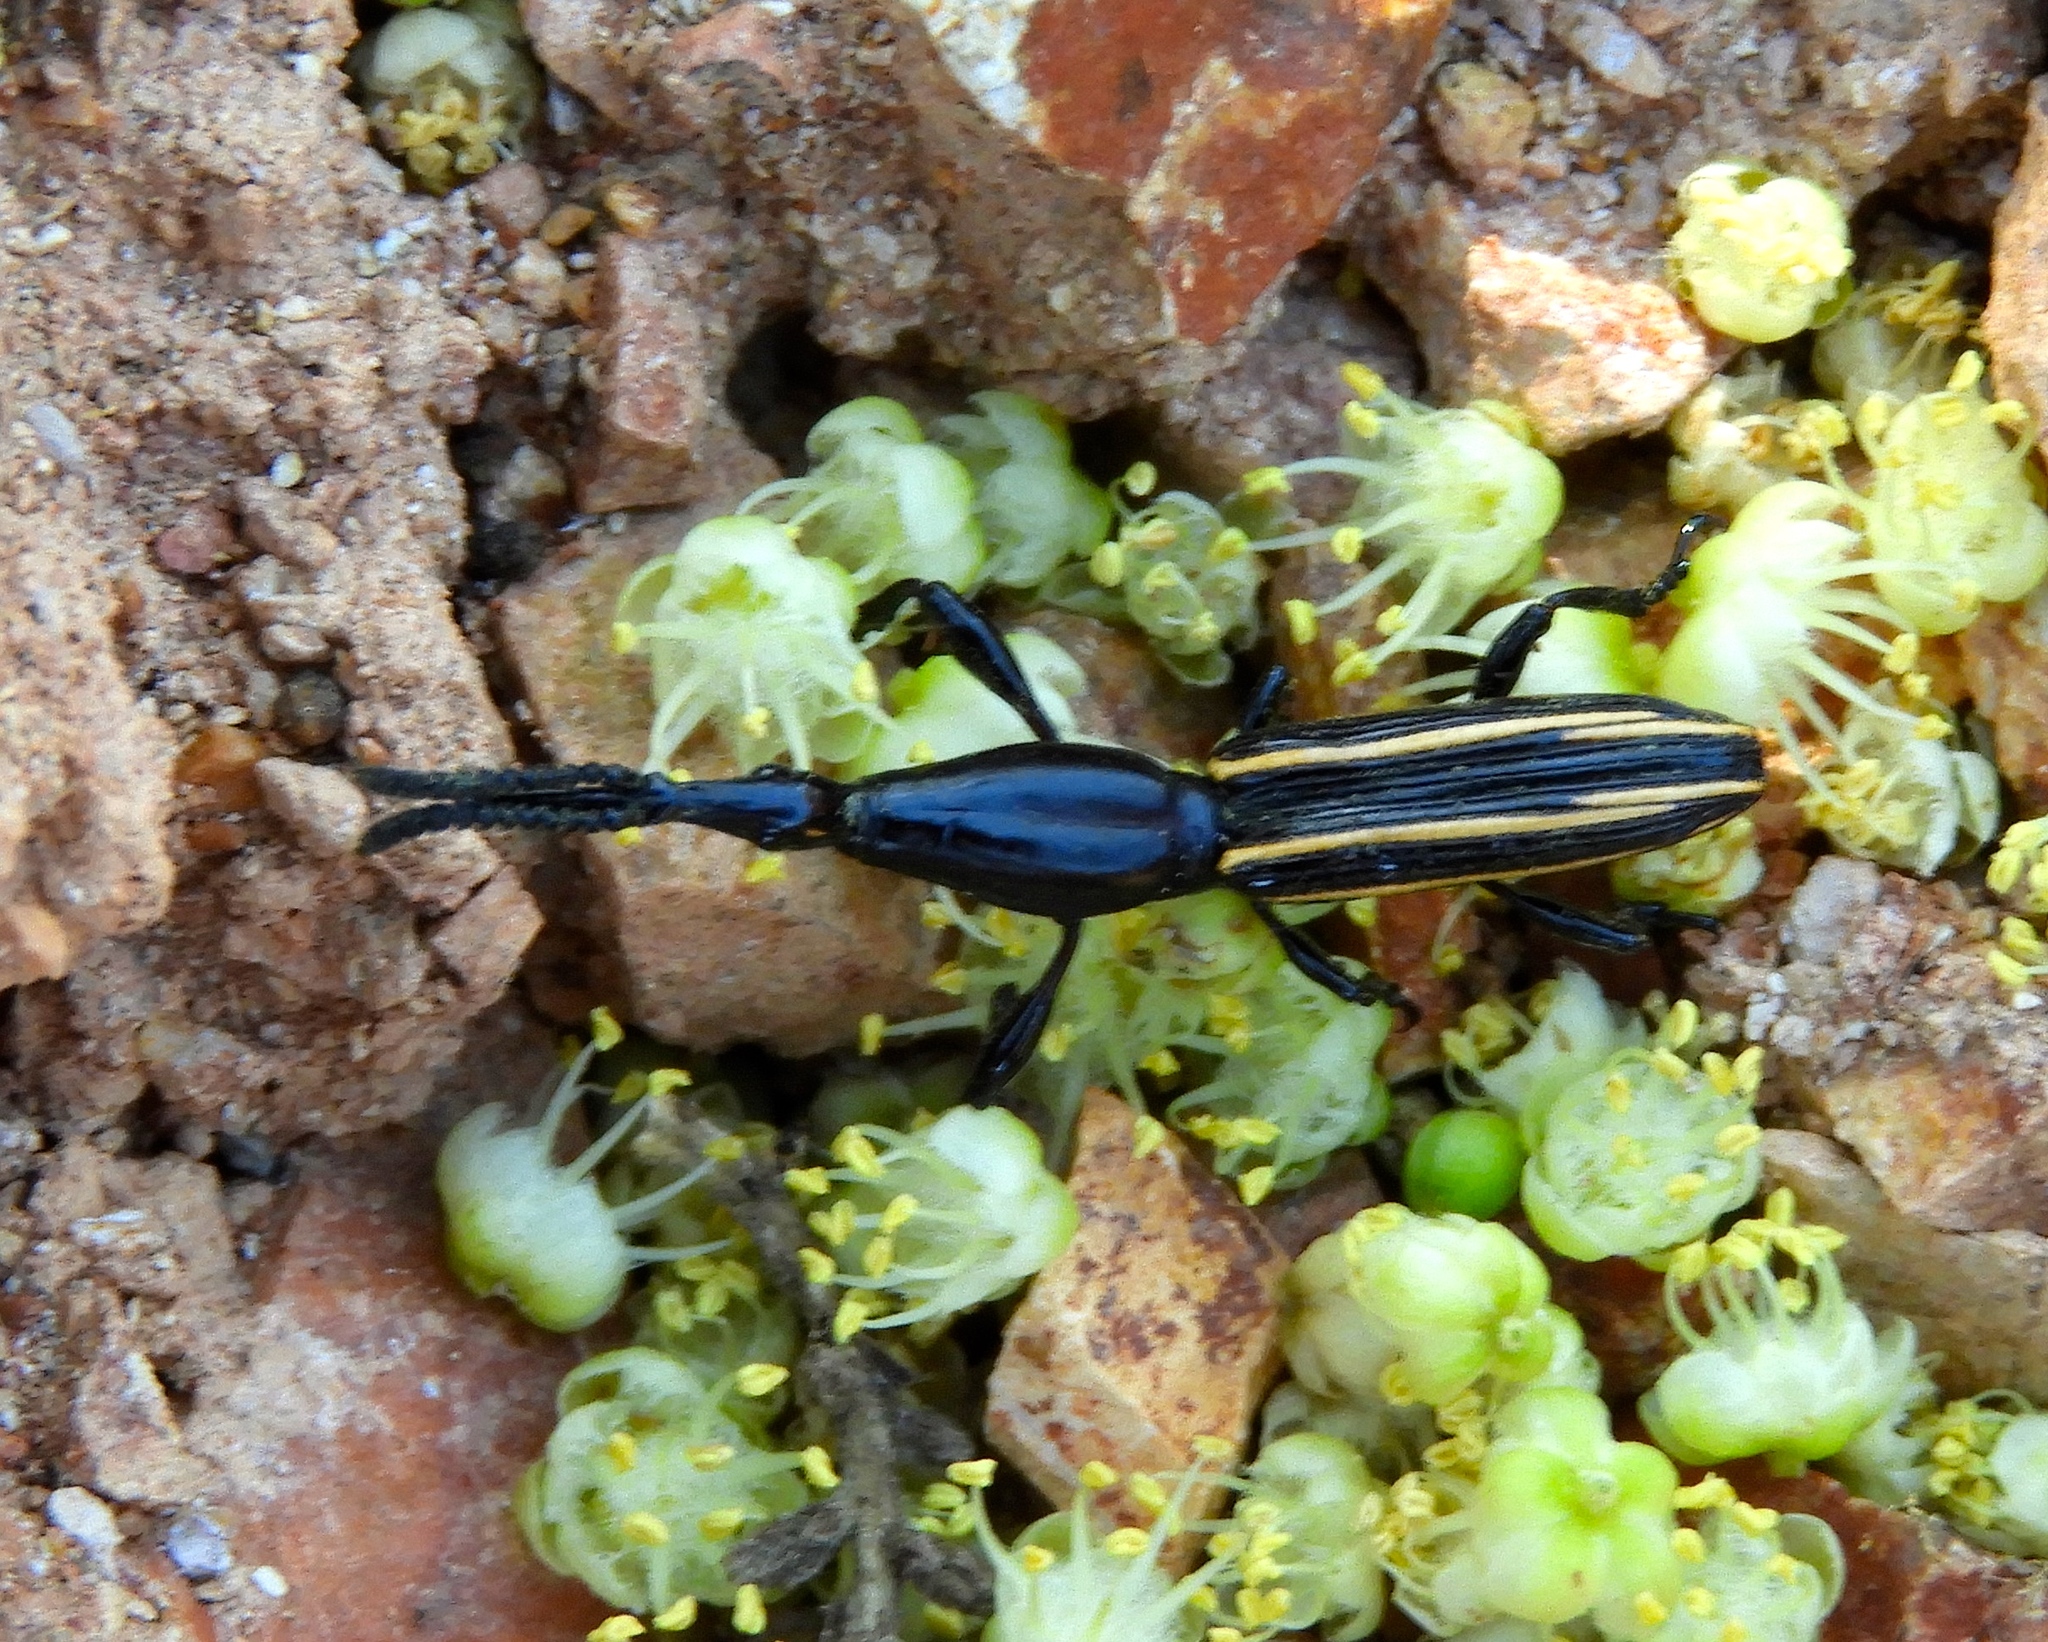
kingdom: Animalia
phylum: Arthropoda
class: Insecta
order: Coleoptera
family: Brentidae
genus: Brentus
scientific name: Brentus anchorago
